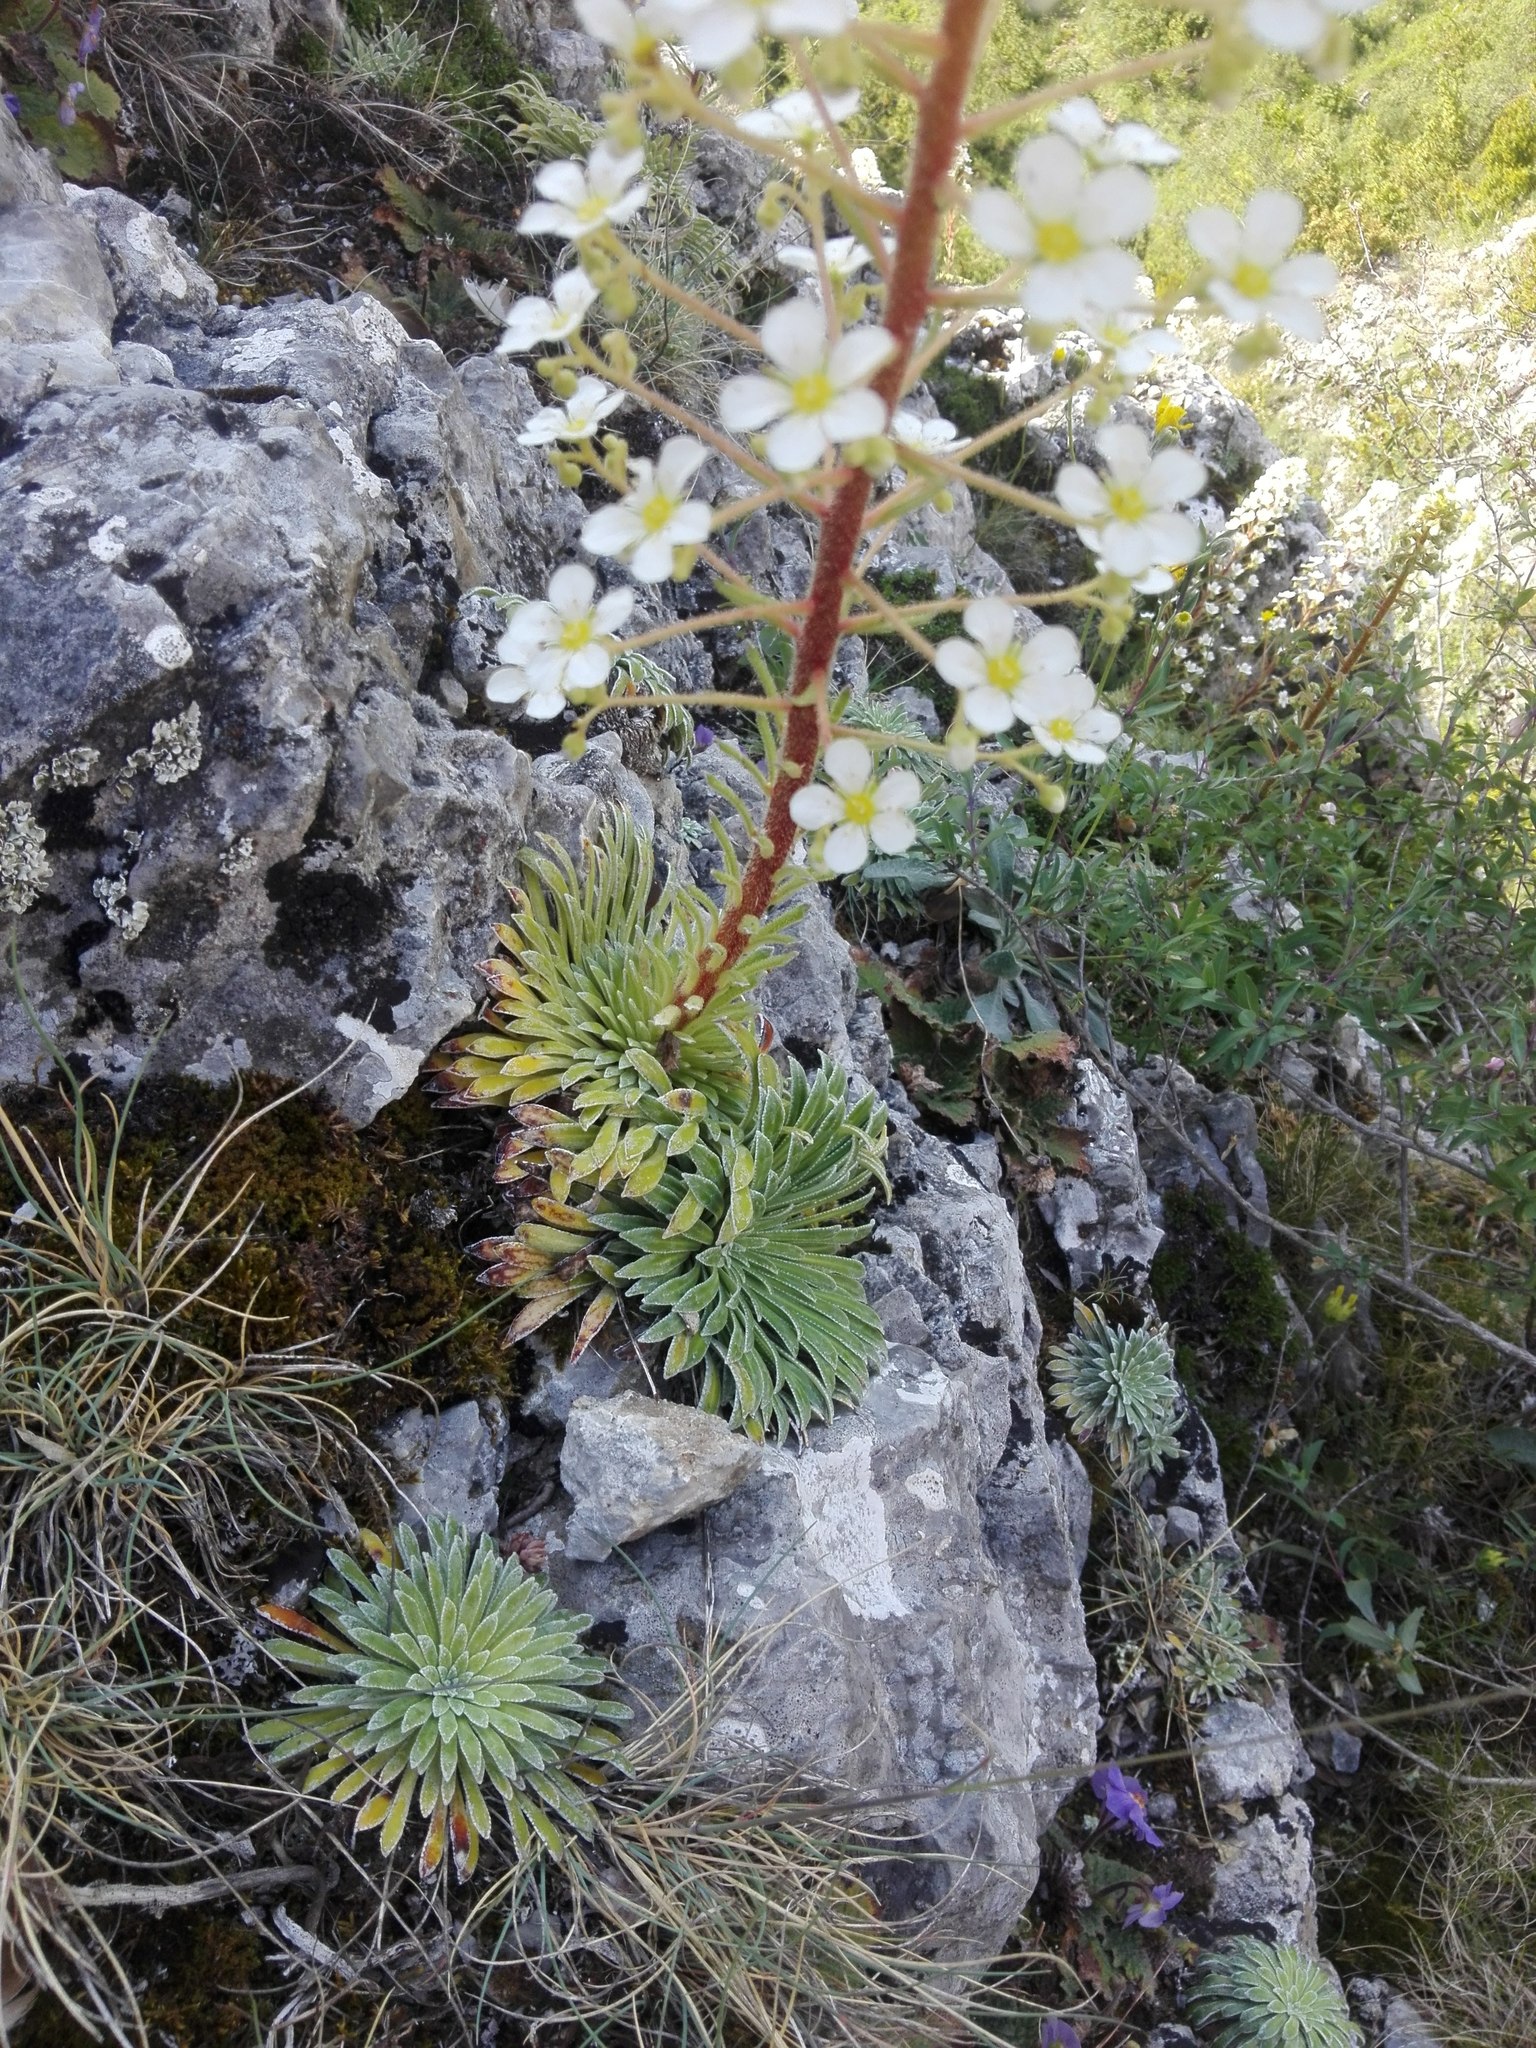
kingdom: Plantae
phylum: Tracheophyta
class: Magnoliopsida
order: Saxifragales
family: Saxifragaceae
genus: Saxifraga
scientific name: Saxifraga longifolia
